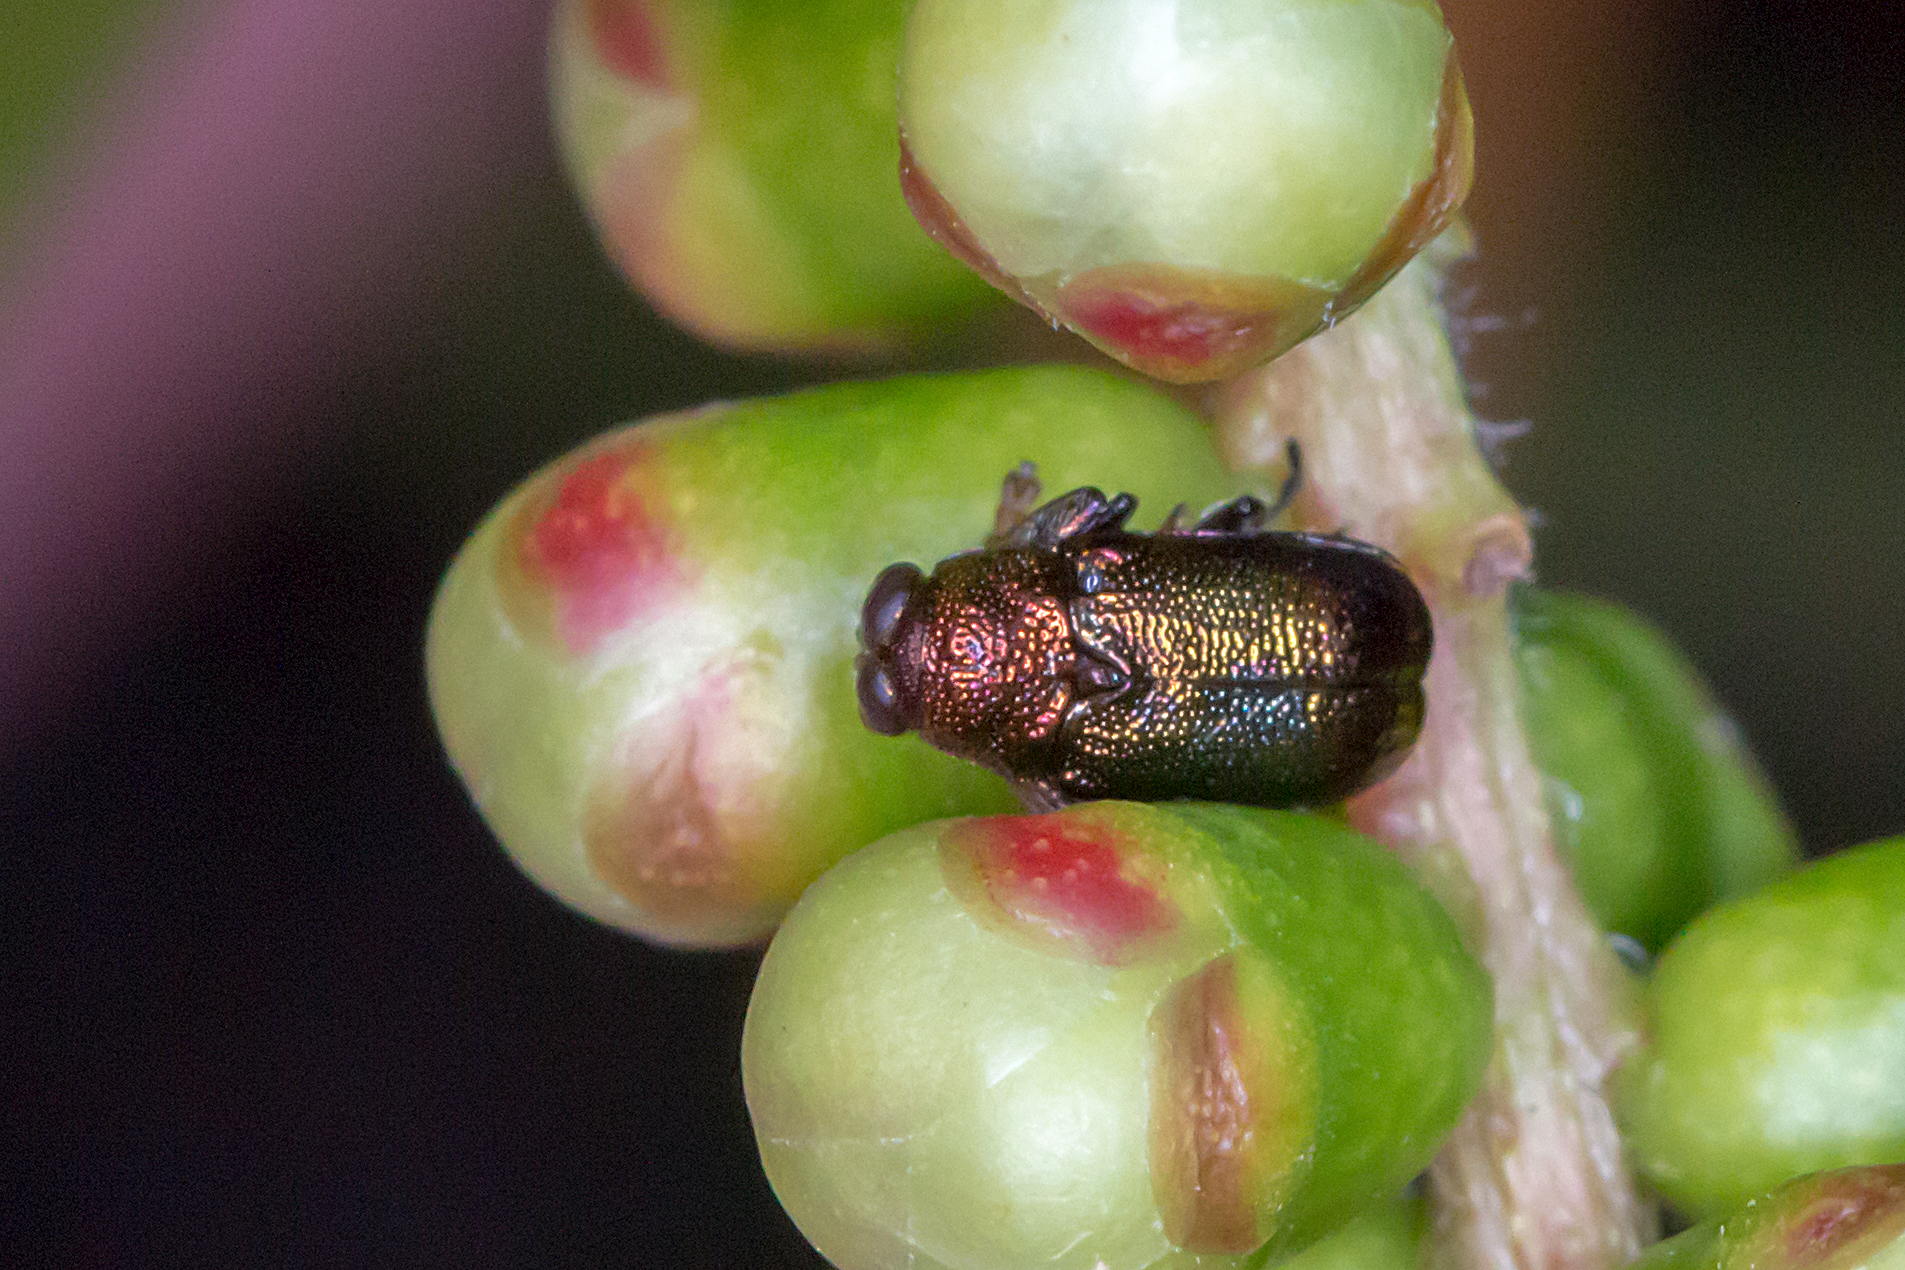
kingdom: Animalia
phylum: Arthropoda
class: Insecta
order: Coleoptera
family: Chrysomelidae
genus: Aporocera
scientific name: Aporocera
